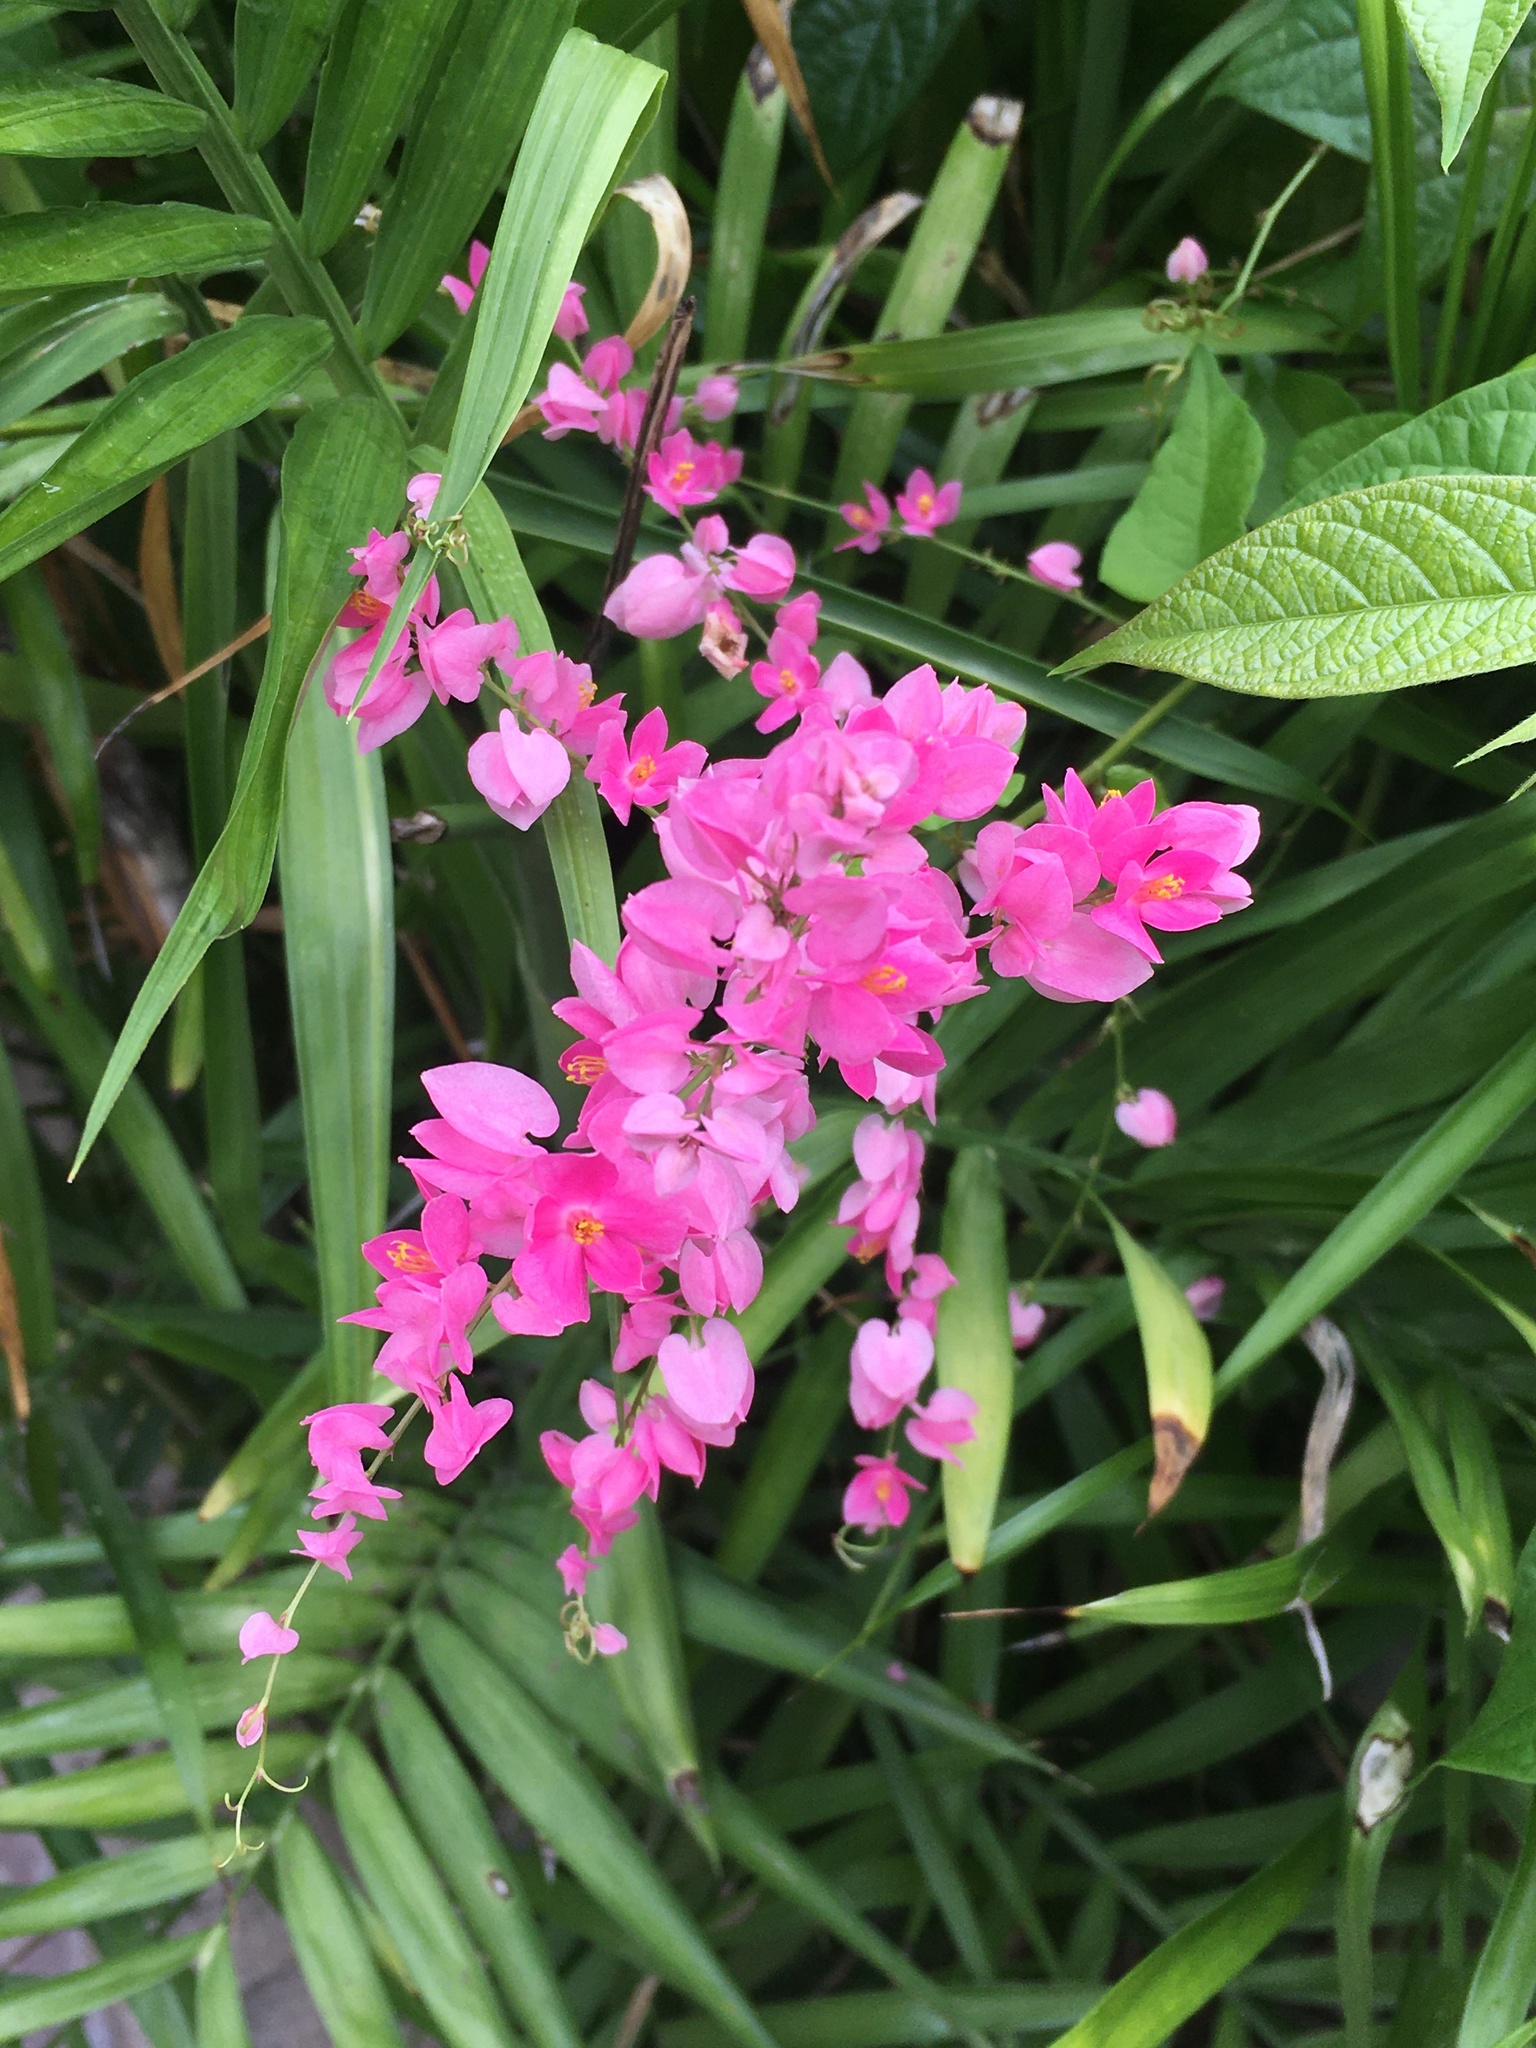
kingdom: Plantae
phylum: Tracheophyta
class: Magnoliopsida
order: Caryophyllales
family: Polygonaceae
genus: Antigonon
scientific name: Antigonon leptopus
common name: Coral vine
